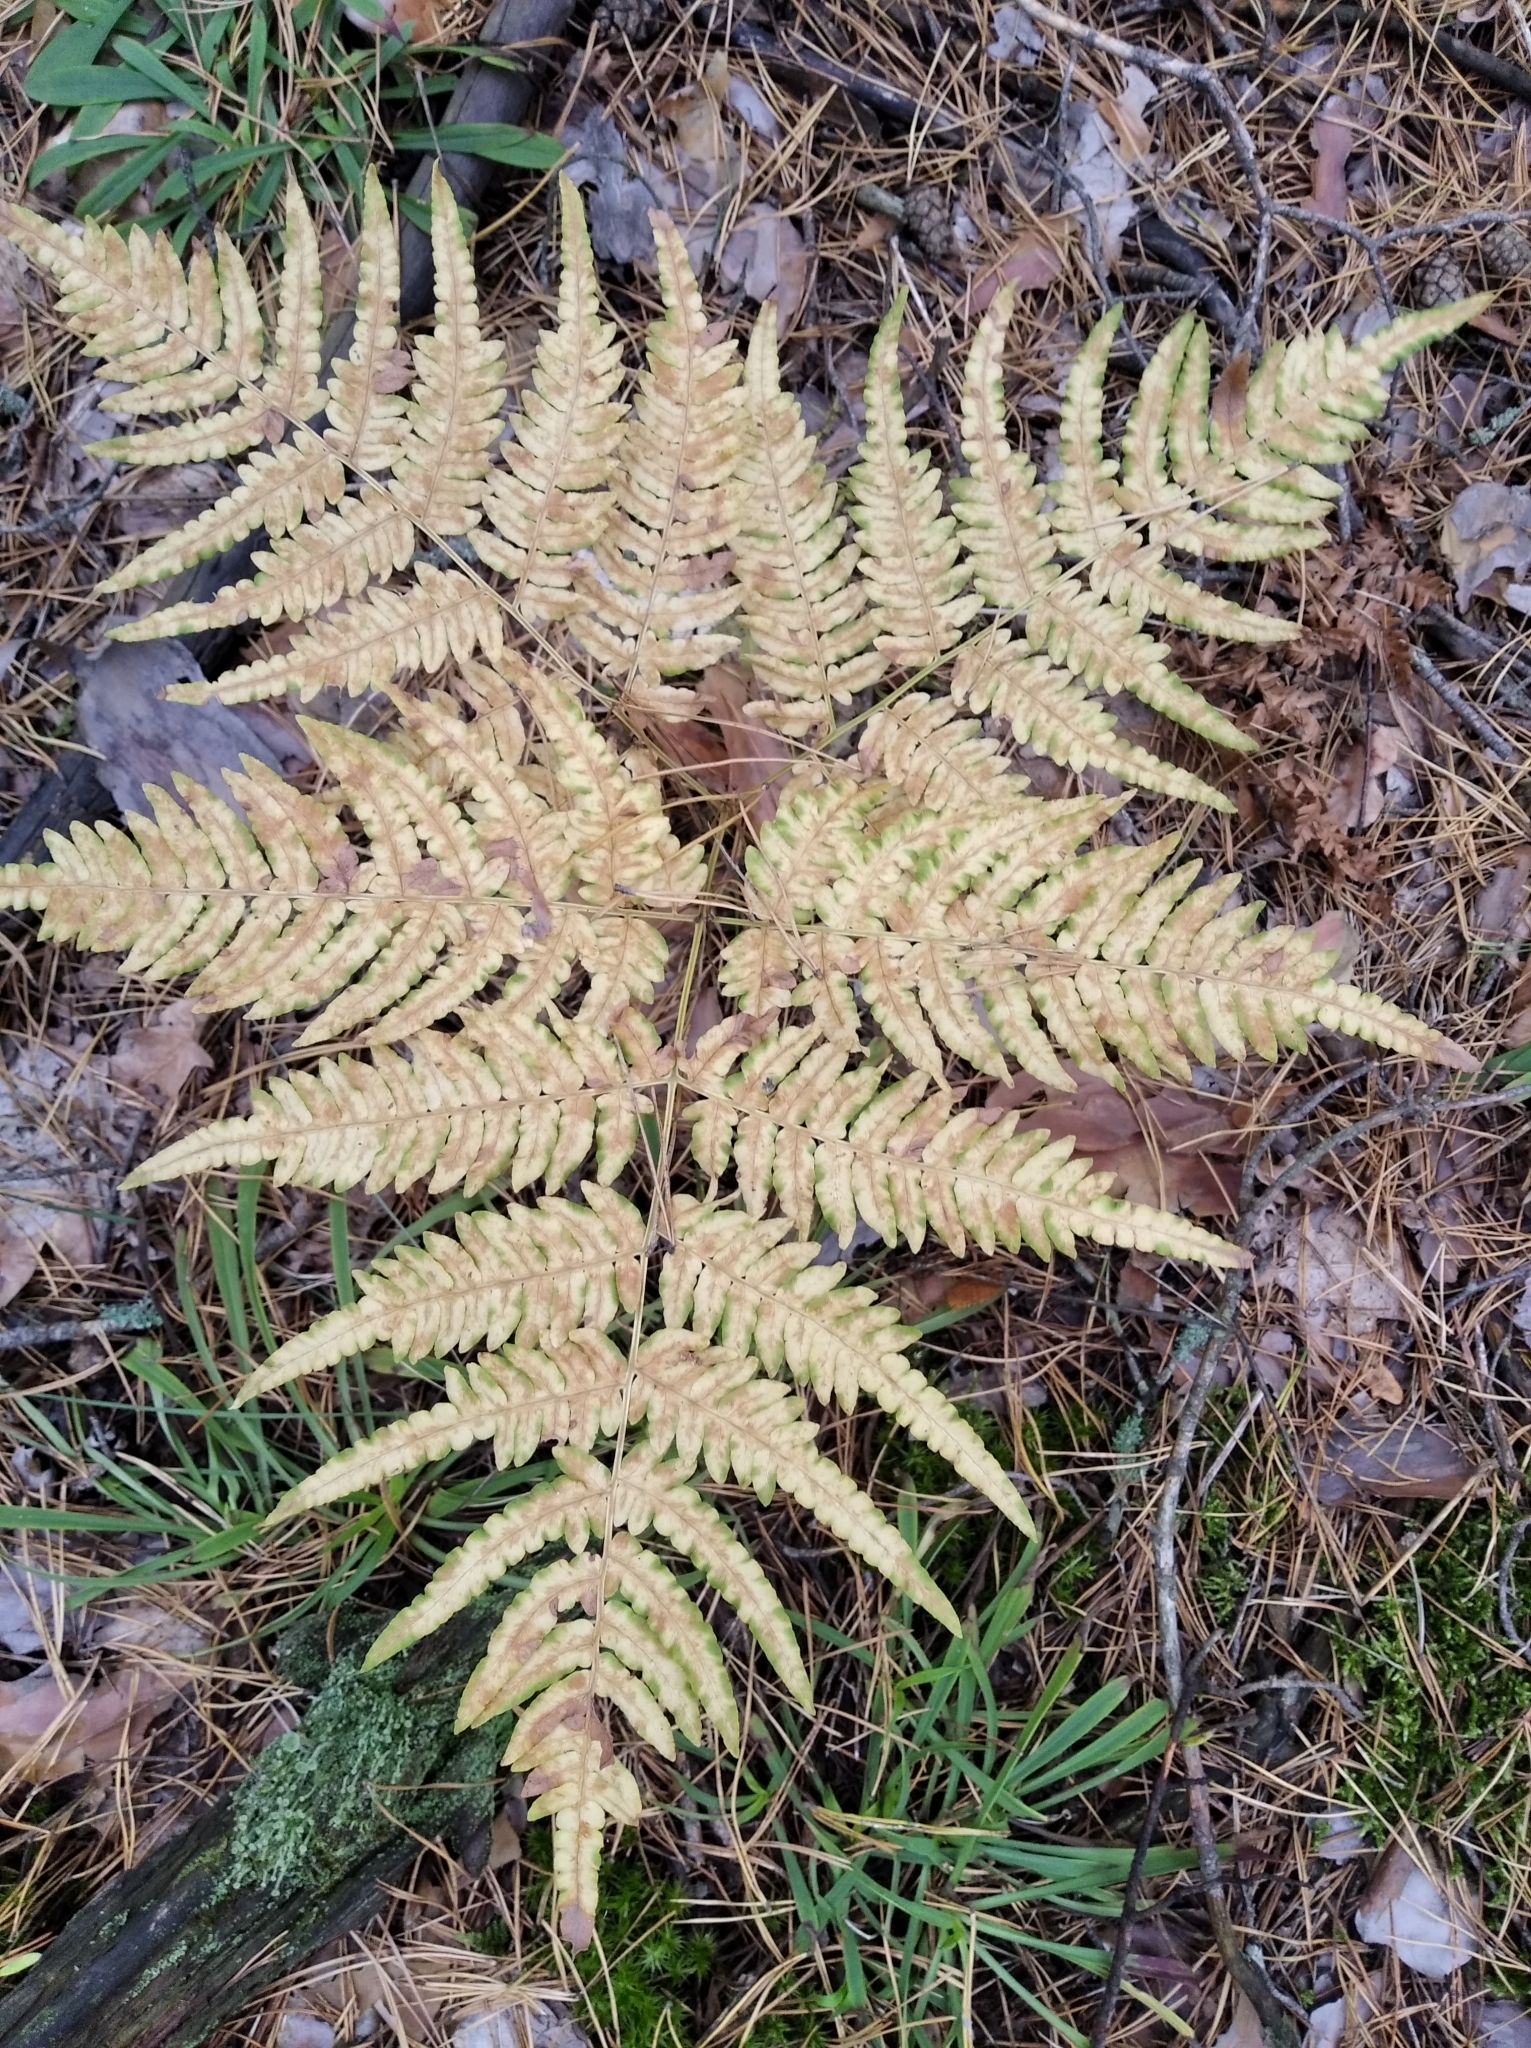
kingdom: Plantae
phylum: Tracheophyta
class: Polypodiopsida
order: Polypodiales
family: Dennstaedtiaceae
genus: Pteridium
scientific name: Pteridium aquilinum
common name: Bracken
